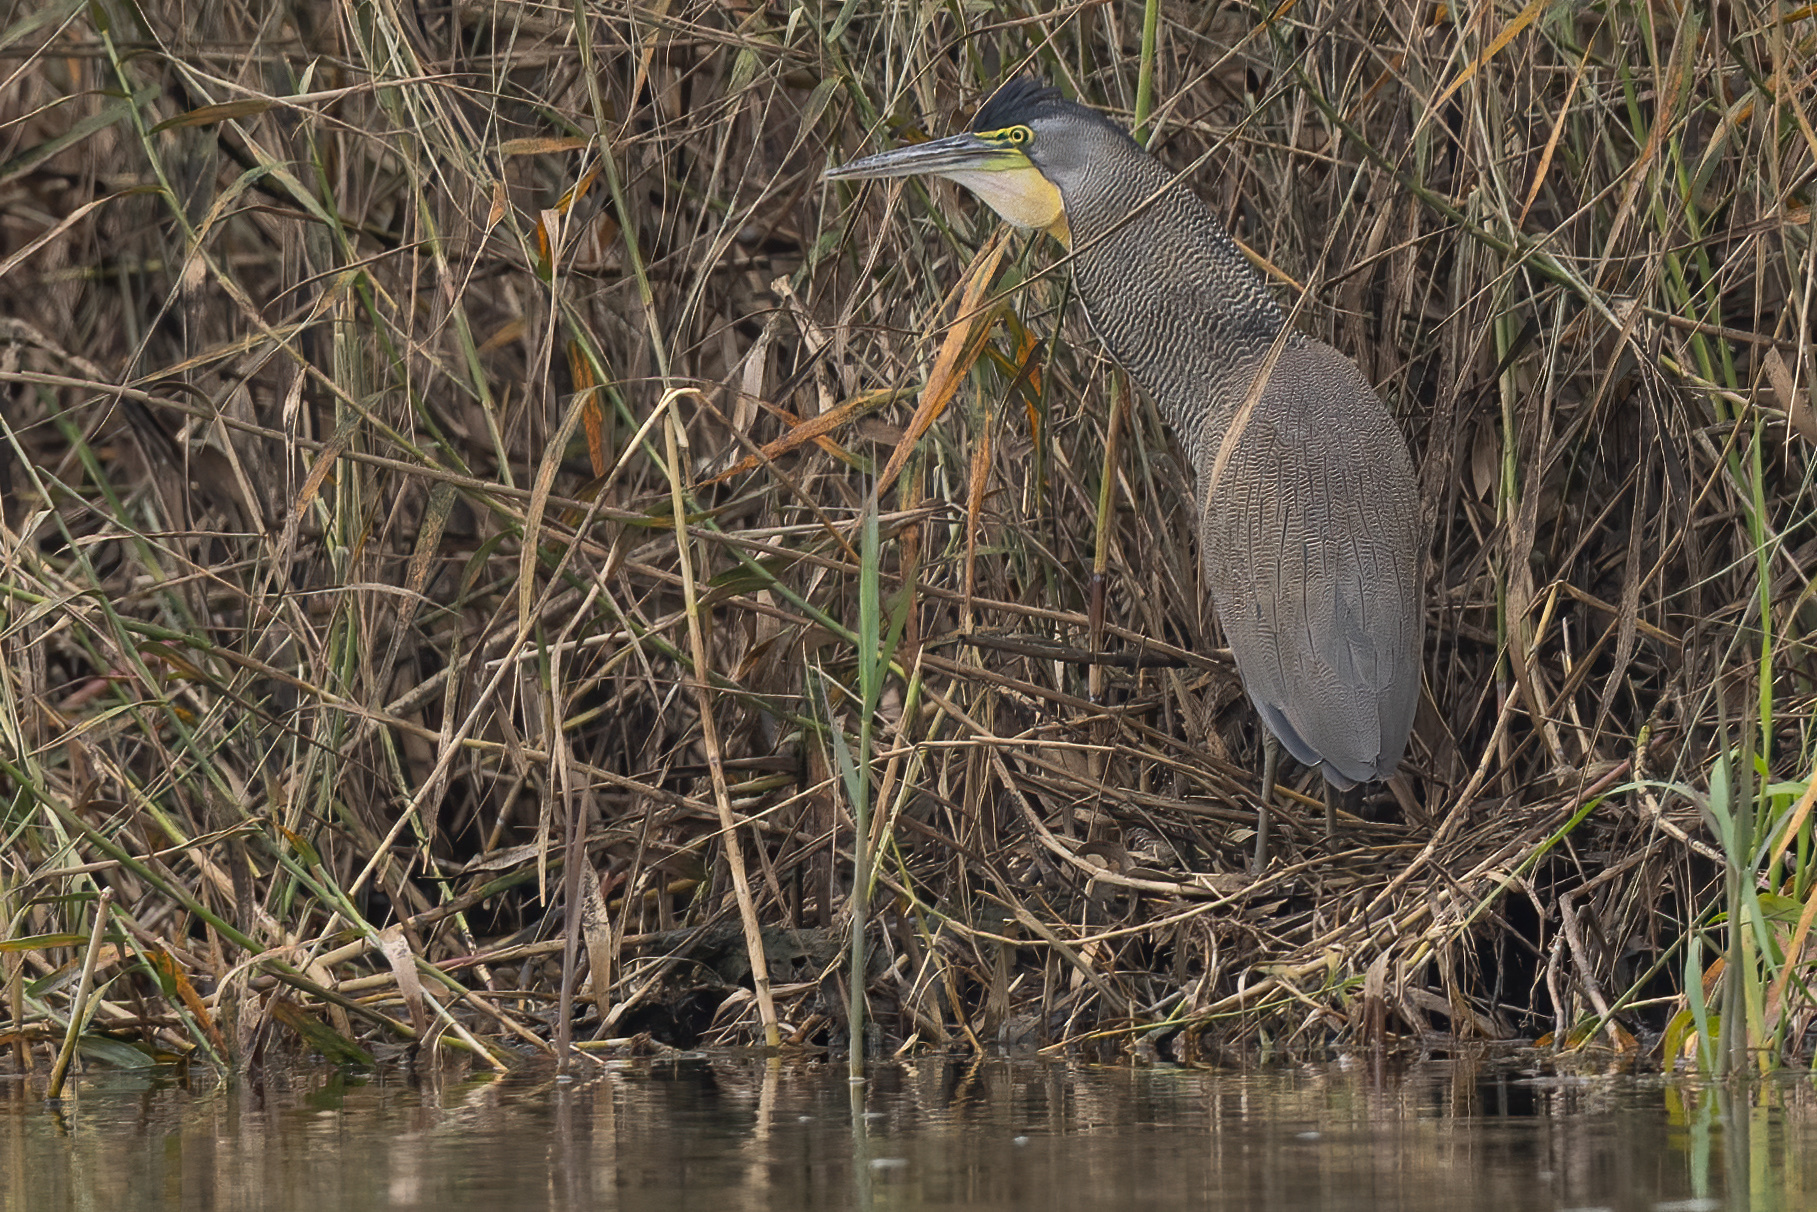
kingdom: Animalia
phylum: Chordata
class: Aves
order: Pelecaniformes
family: Ardeidae
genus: Tigrisoma
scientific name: Tigrisoma mexicanum
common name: Bare-throated tiger-heron
